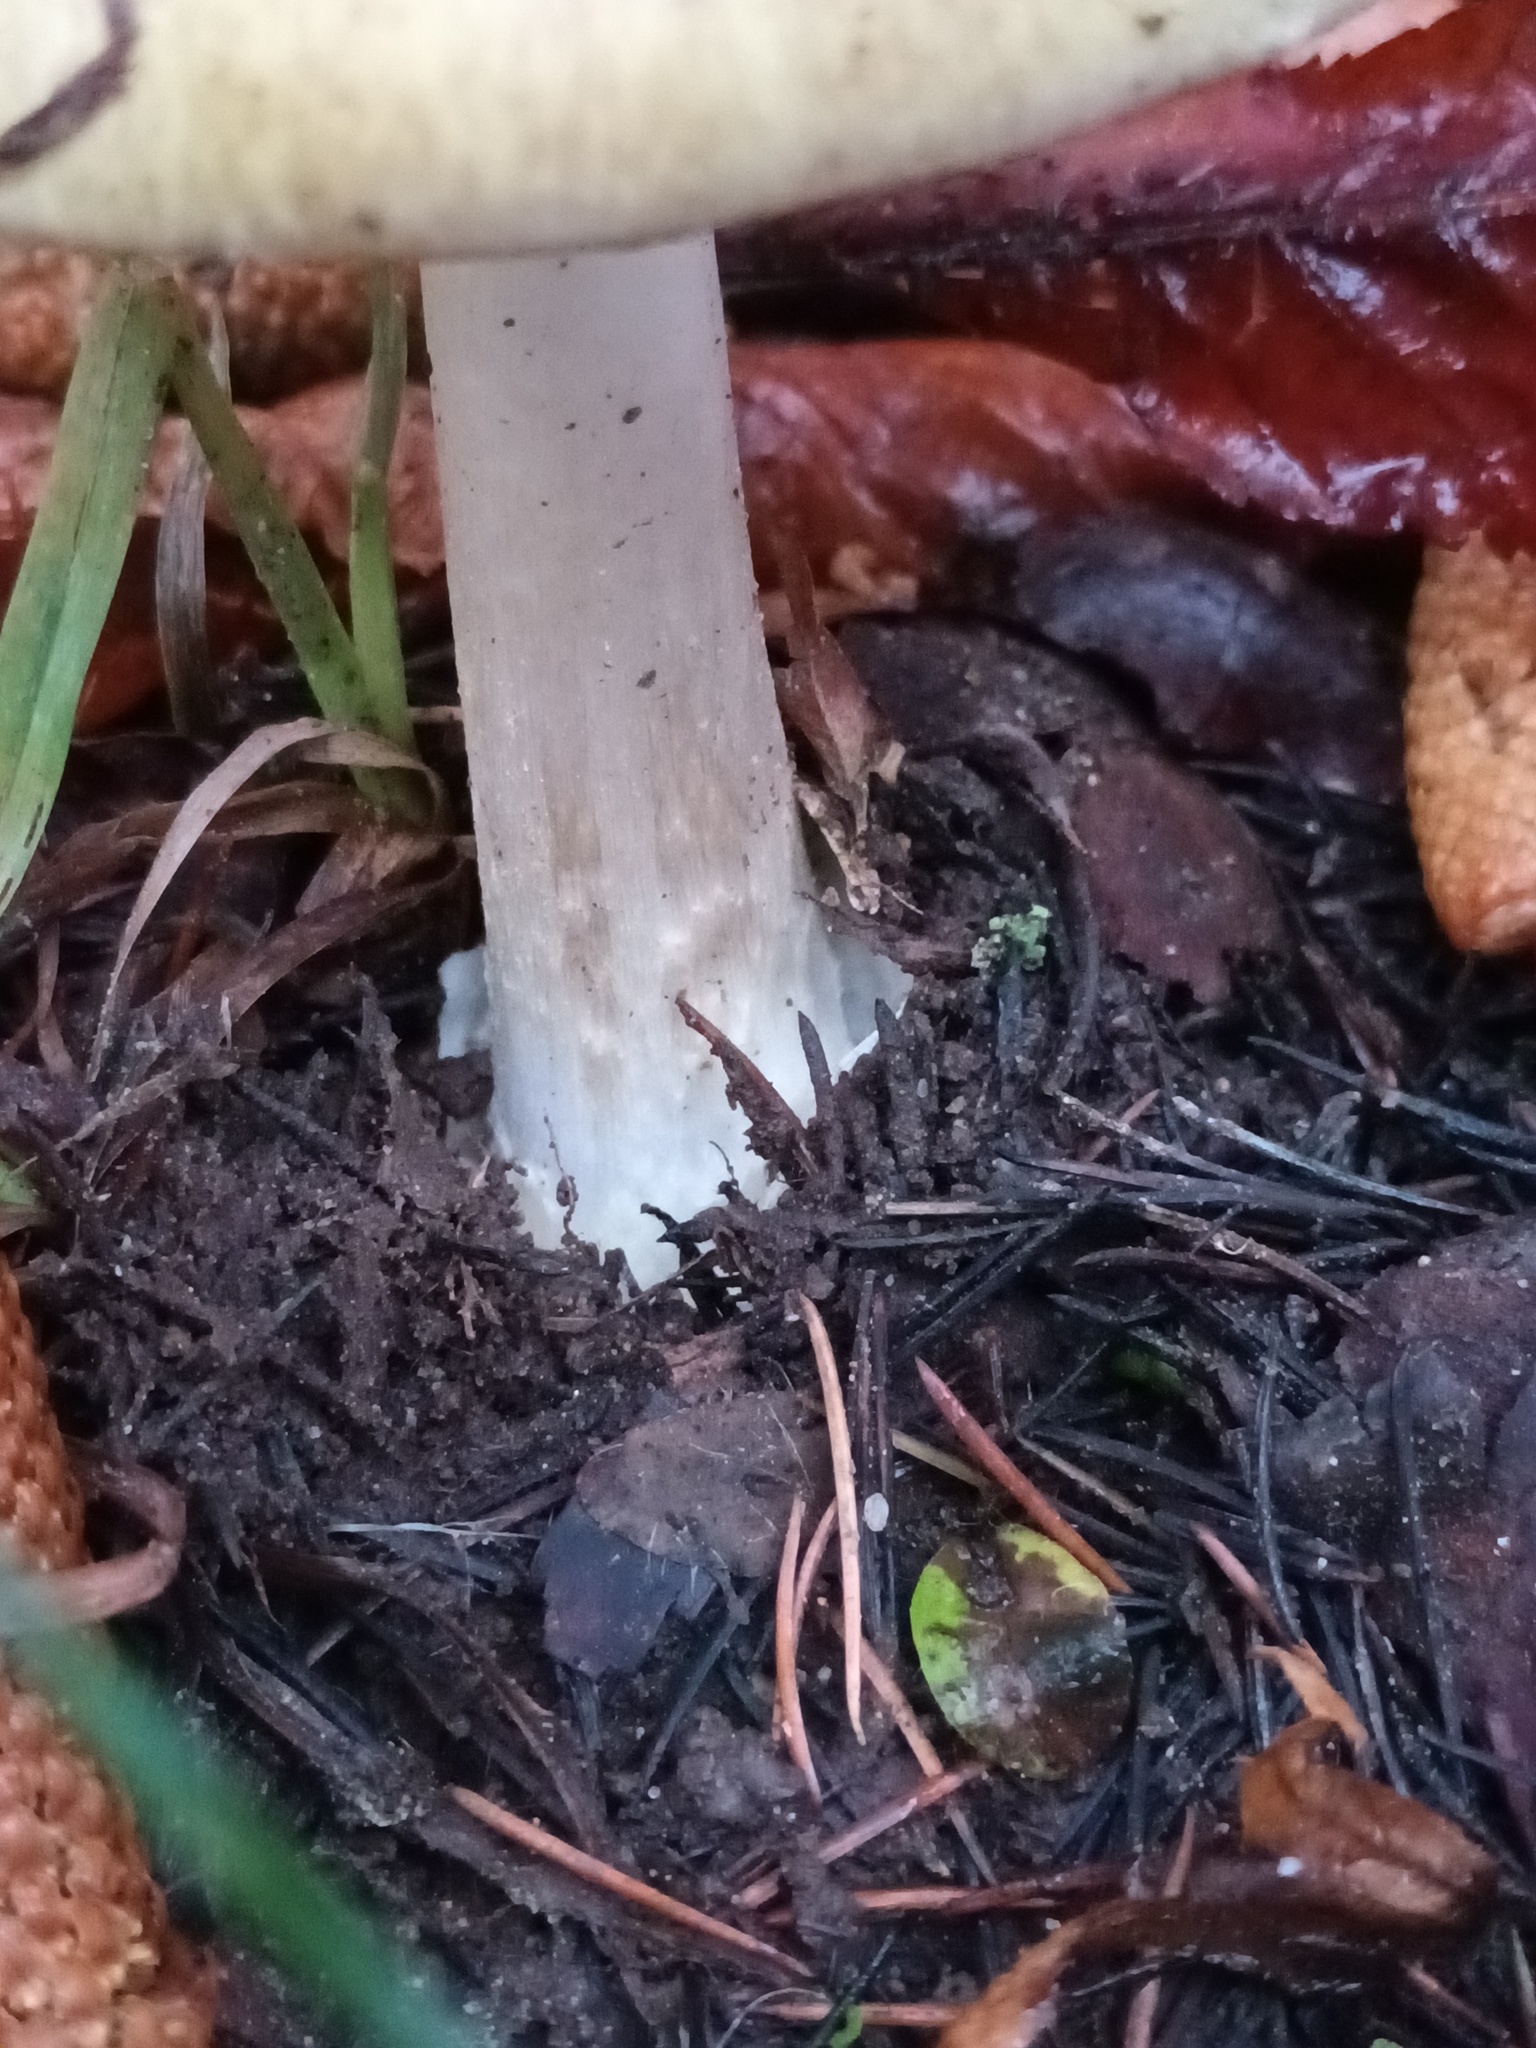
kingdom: Fungi
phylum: Basidiomycota
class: Agaricomycetes
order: Agaricales
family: Amanitaceae
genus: Amanita
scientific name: Amanita phalloides
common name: Death cap
